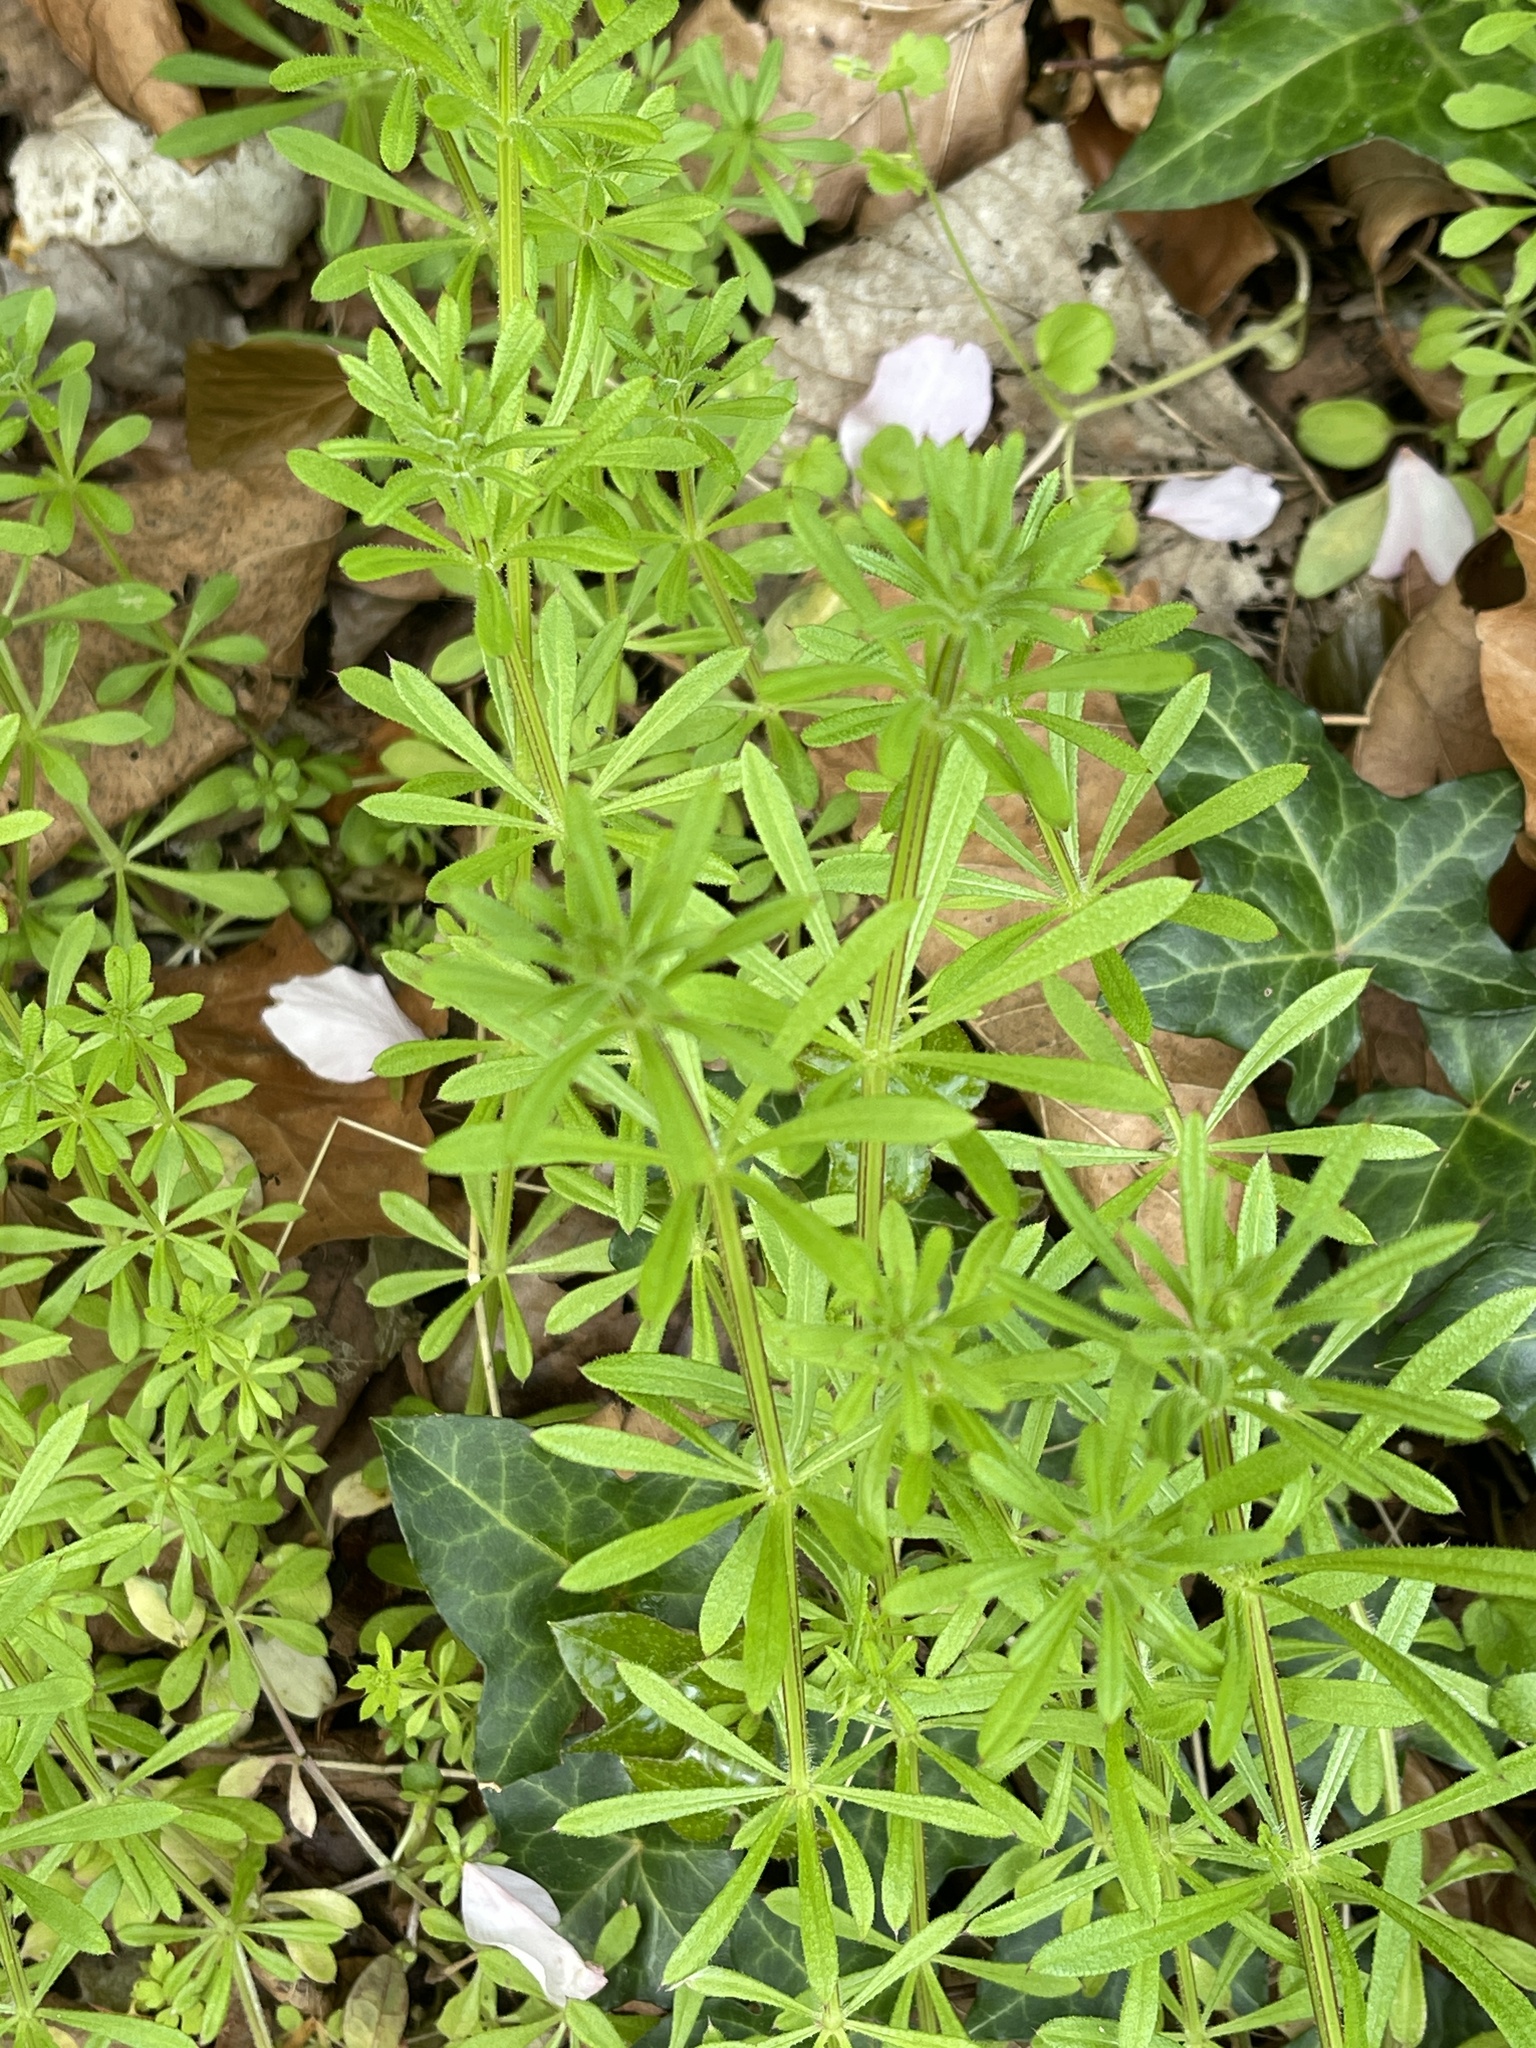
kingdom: Plantae
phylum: Tracheophyta
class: Magnoliopsida
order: Gentianales
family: Rubiaceae
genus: Galium
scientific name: Galium aparine
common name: Cleavers
